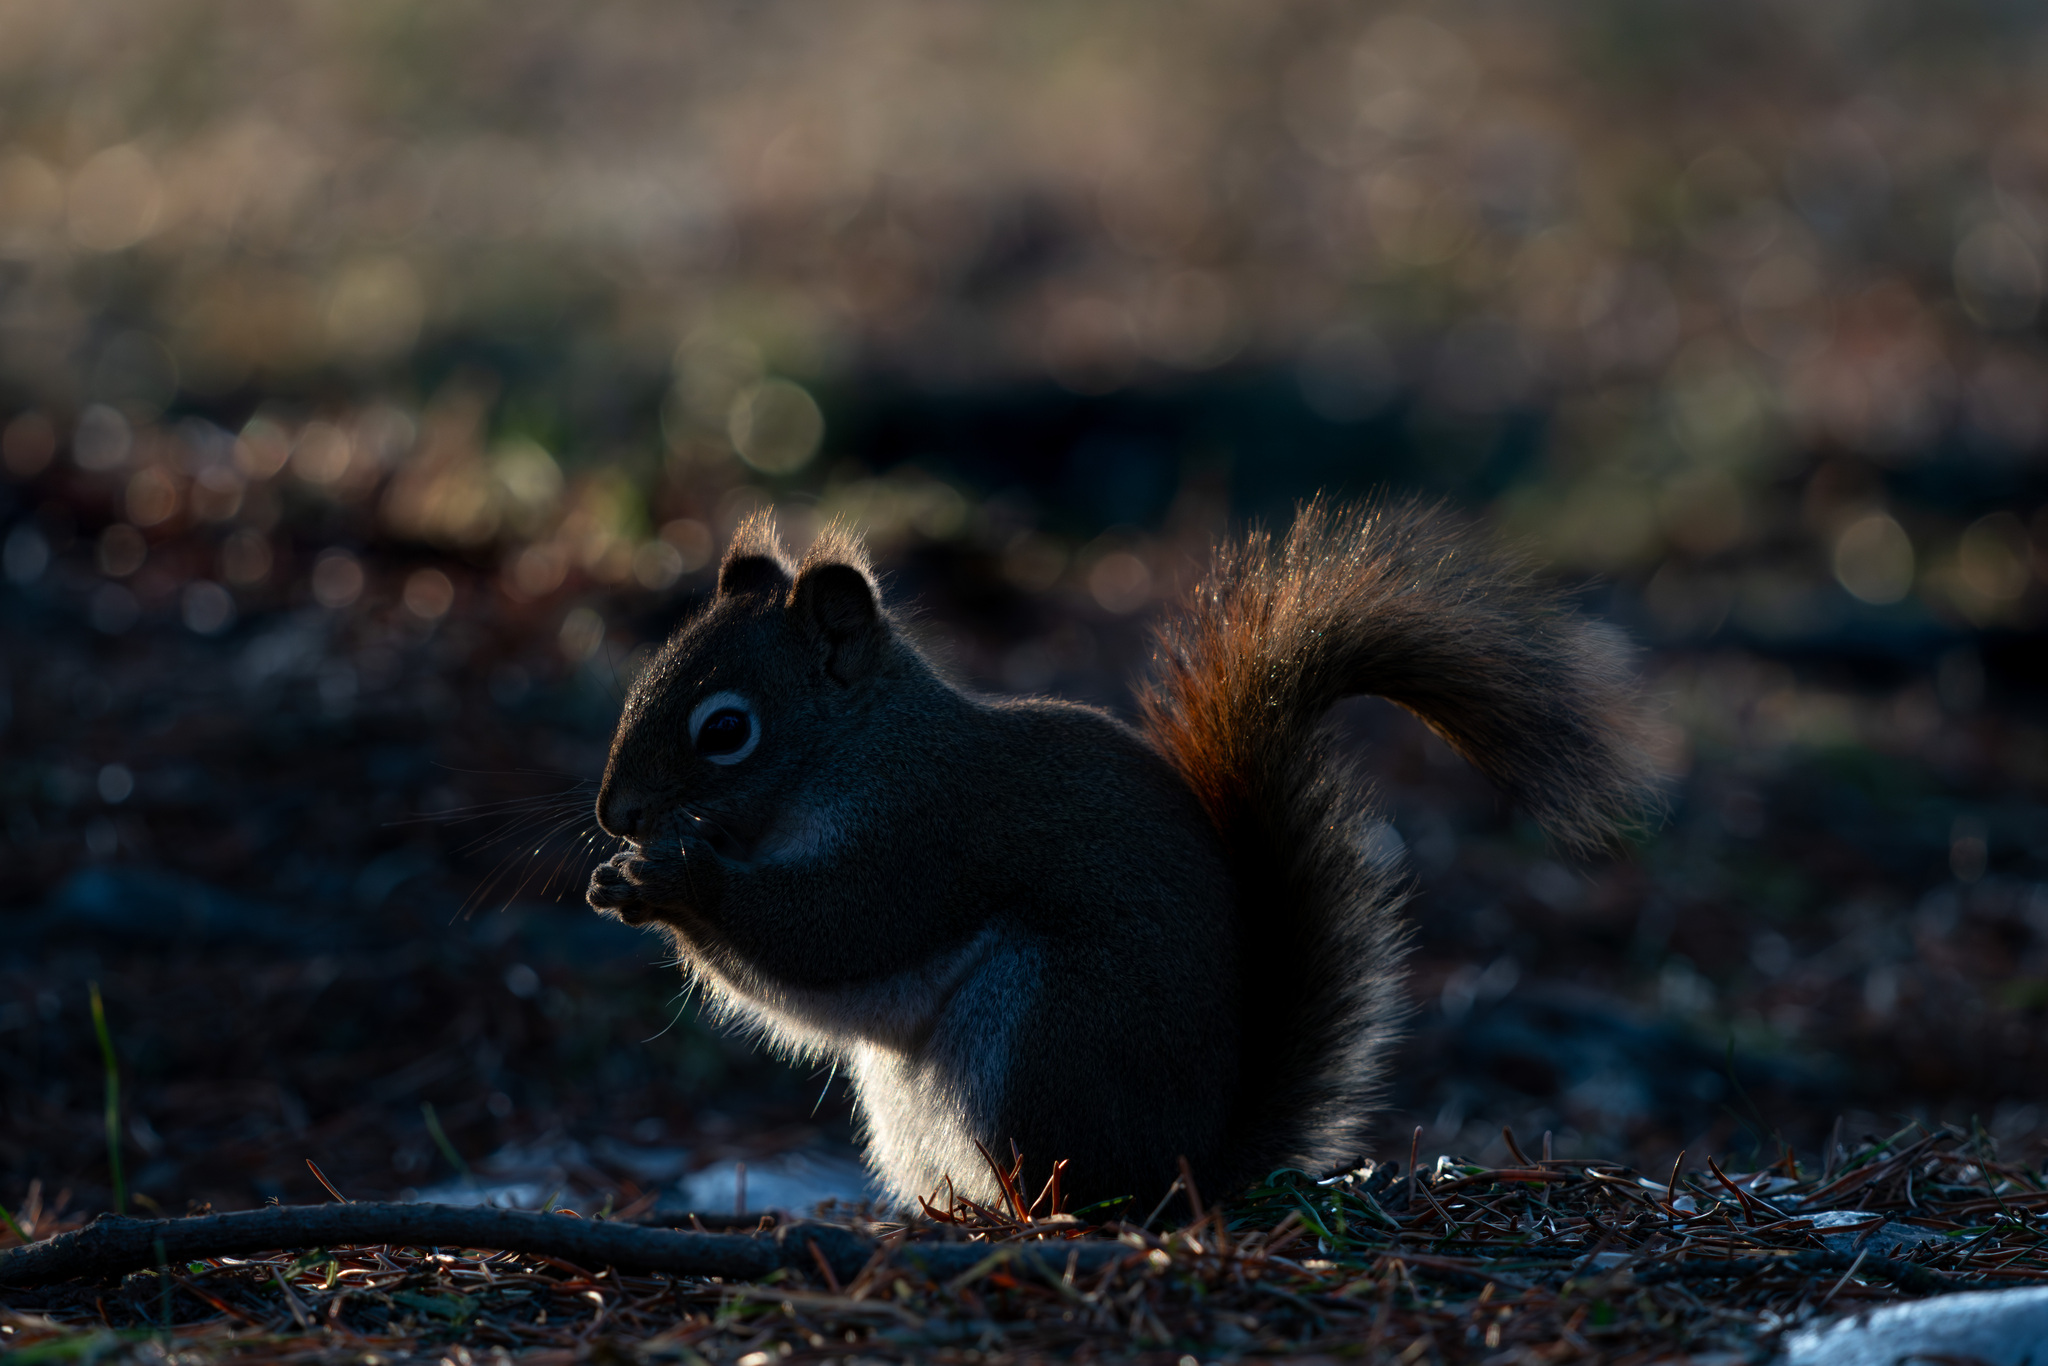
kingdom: Animalia
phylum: Chordata
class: Mammalia
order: Rodentia
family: Sciuridae
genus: Tamiasciurus
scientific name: Tamiasciurus hudsonicus
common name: Red squirrel
